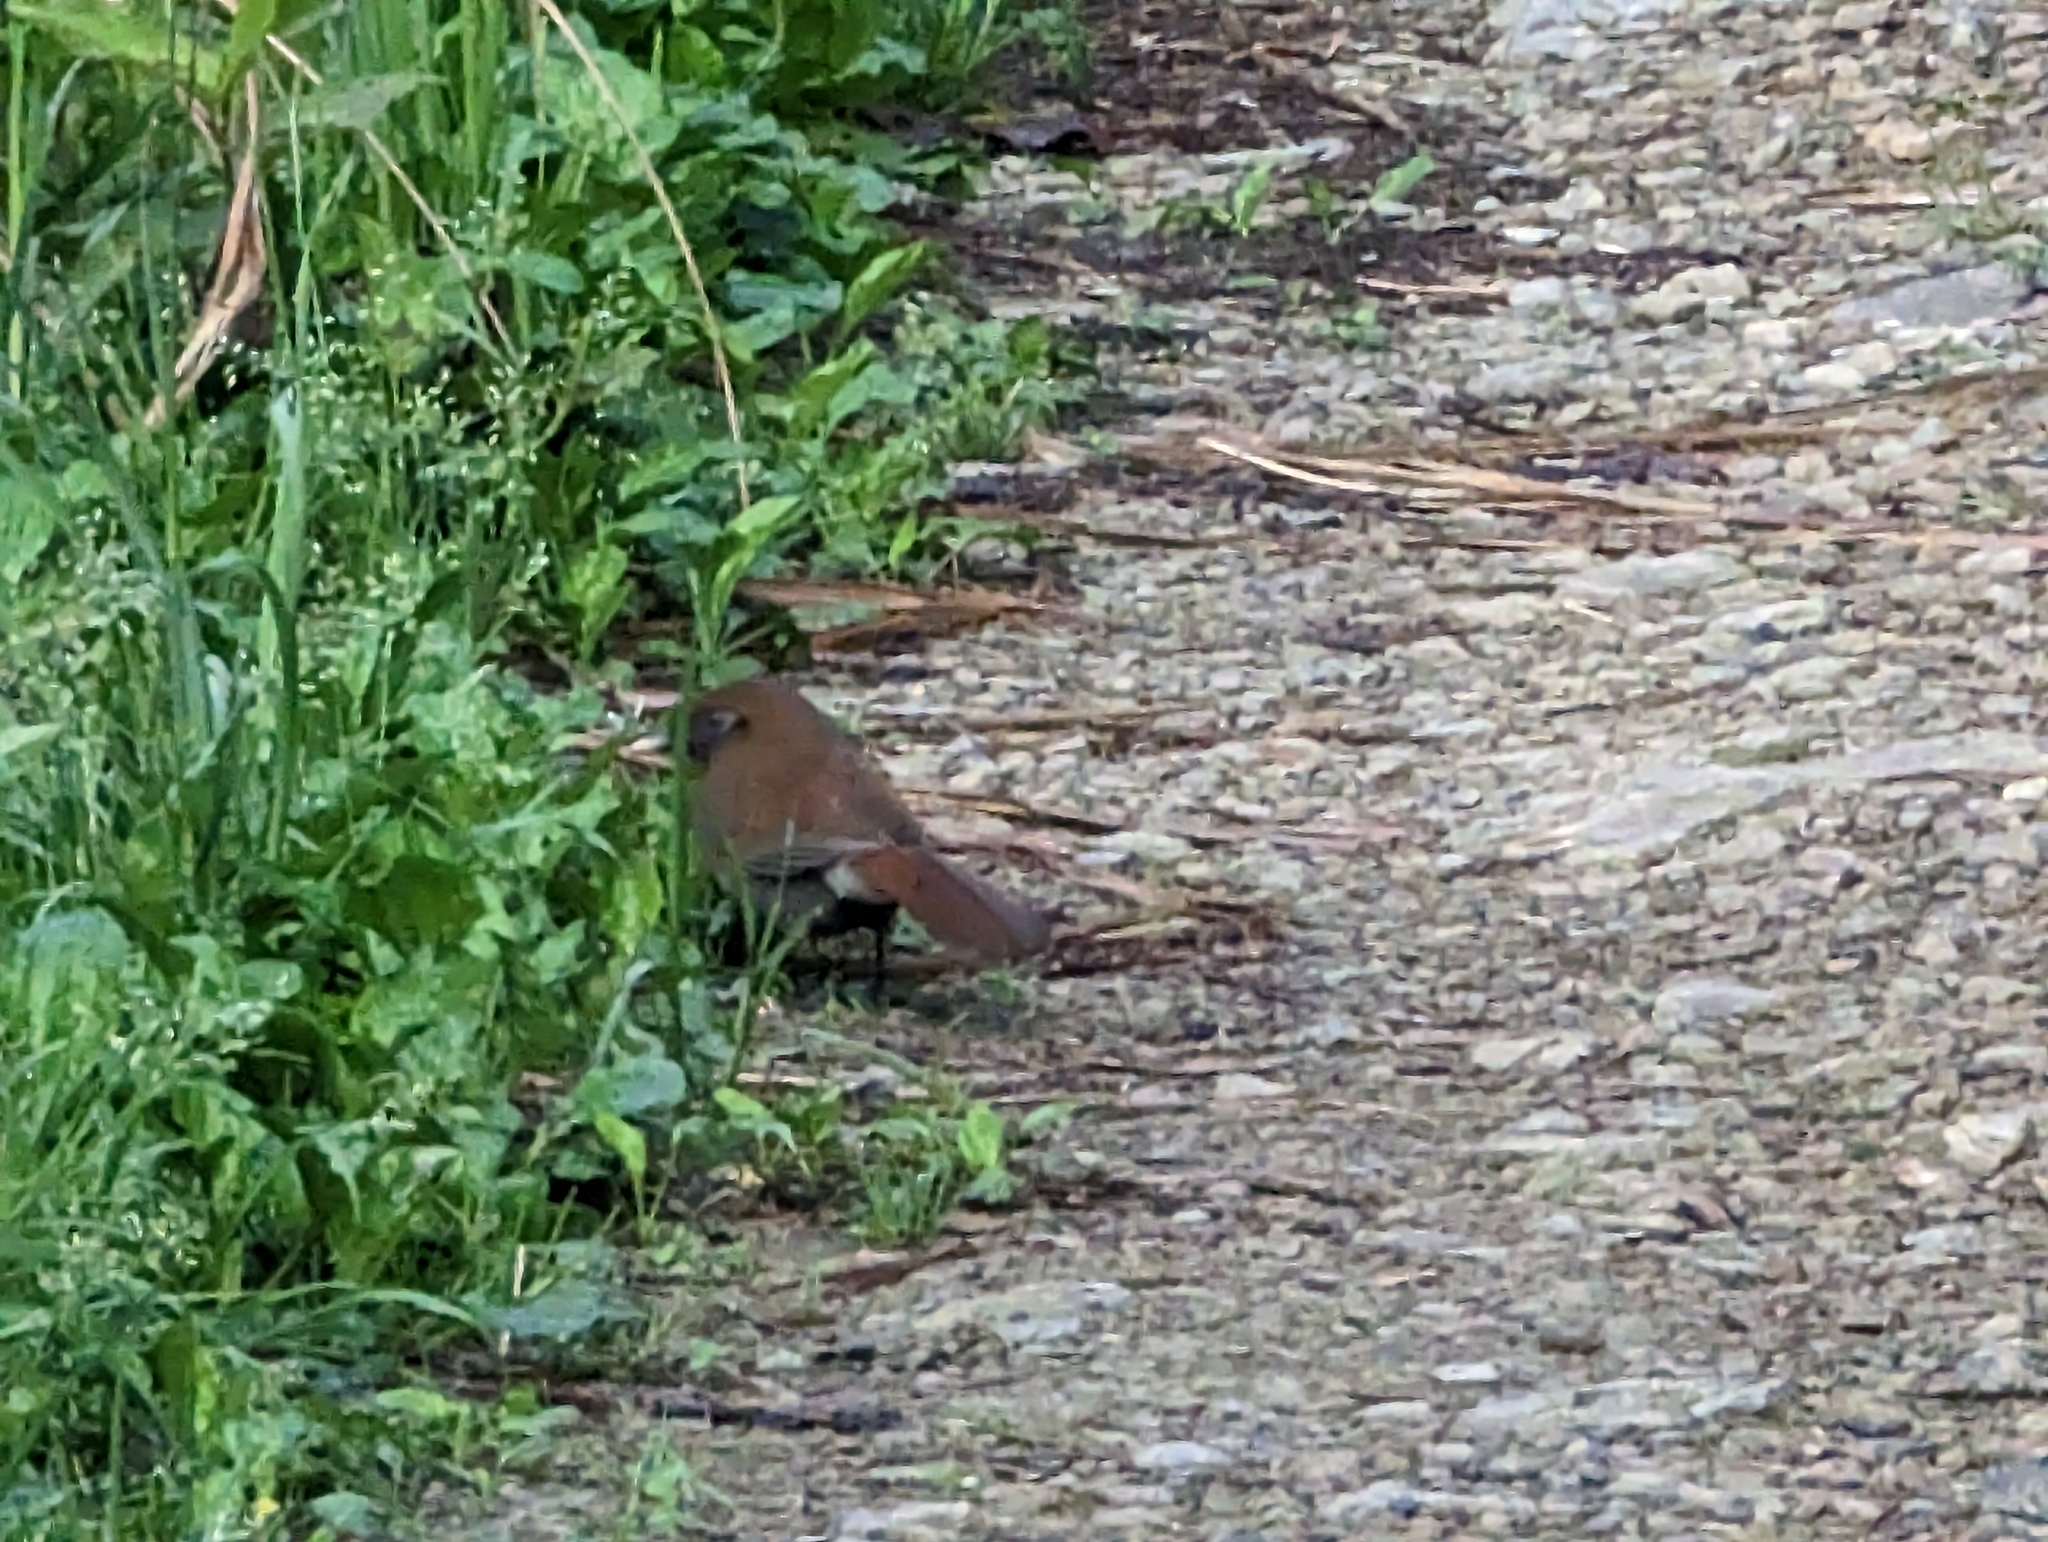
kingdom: Animalia
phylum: Chordata
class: Aves
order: Passeriformes
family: Leiothrichidae
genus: Garrulax
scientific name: Garrulax poecilorhynchus
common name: Rusty laughingthrush
